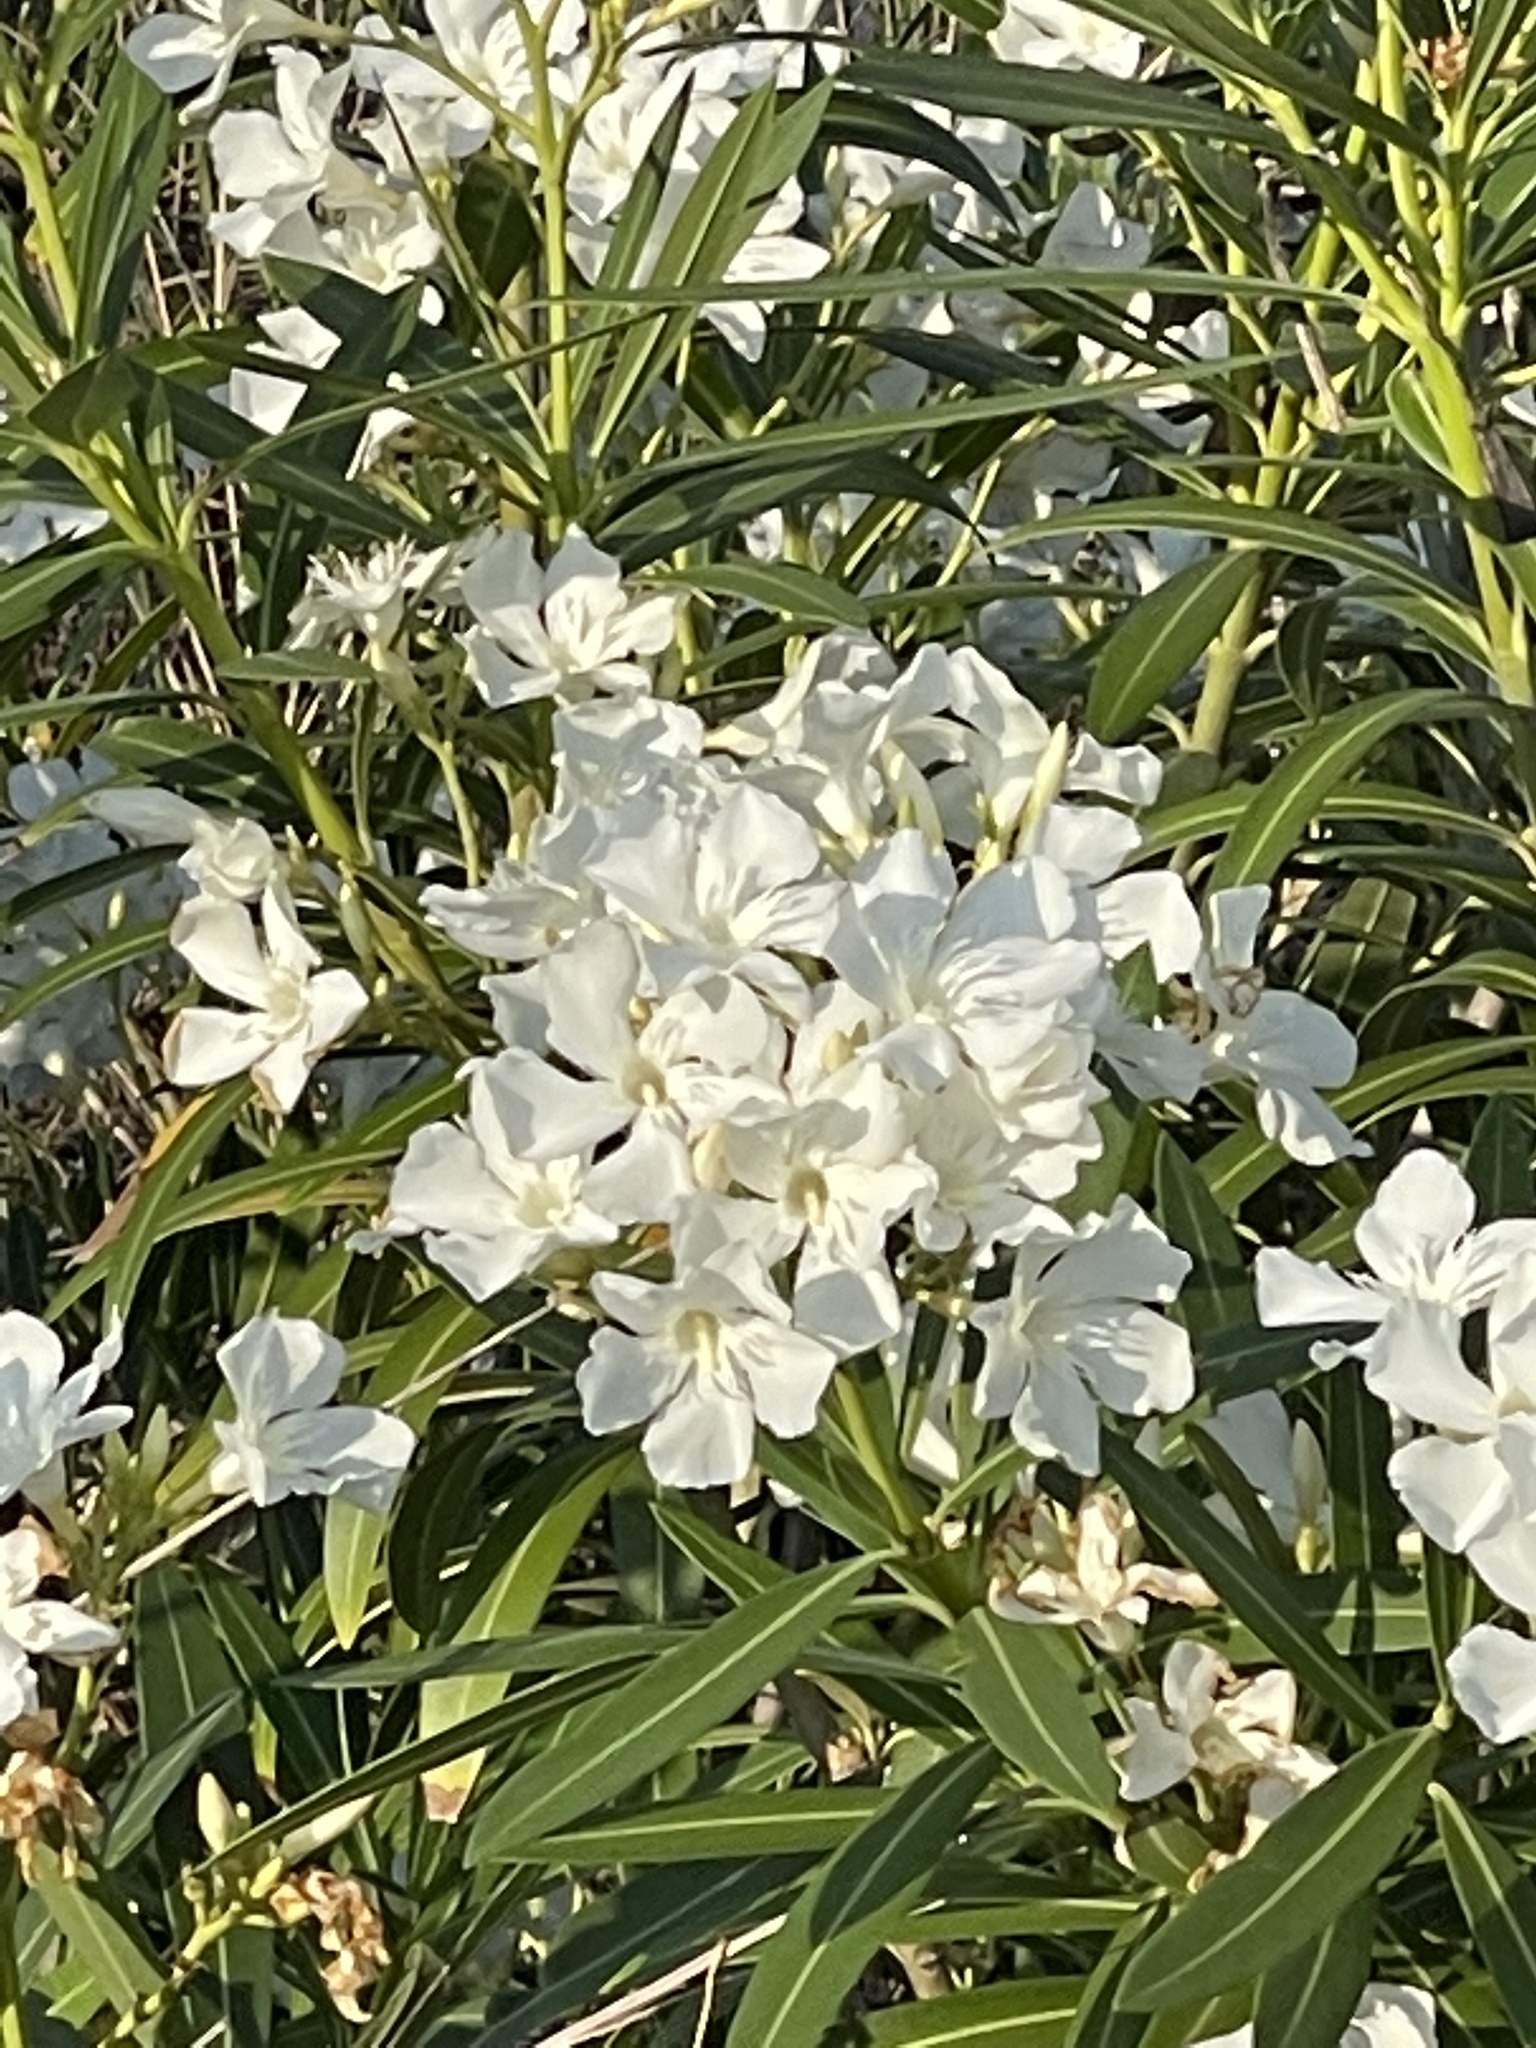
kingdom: Plantae
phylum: Tracheophyta
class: Magnoliopsida
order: Gentianales
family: Apocynaceae
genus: Nerium
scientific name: Nerium oleander
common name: Oleander
